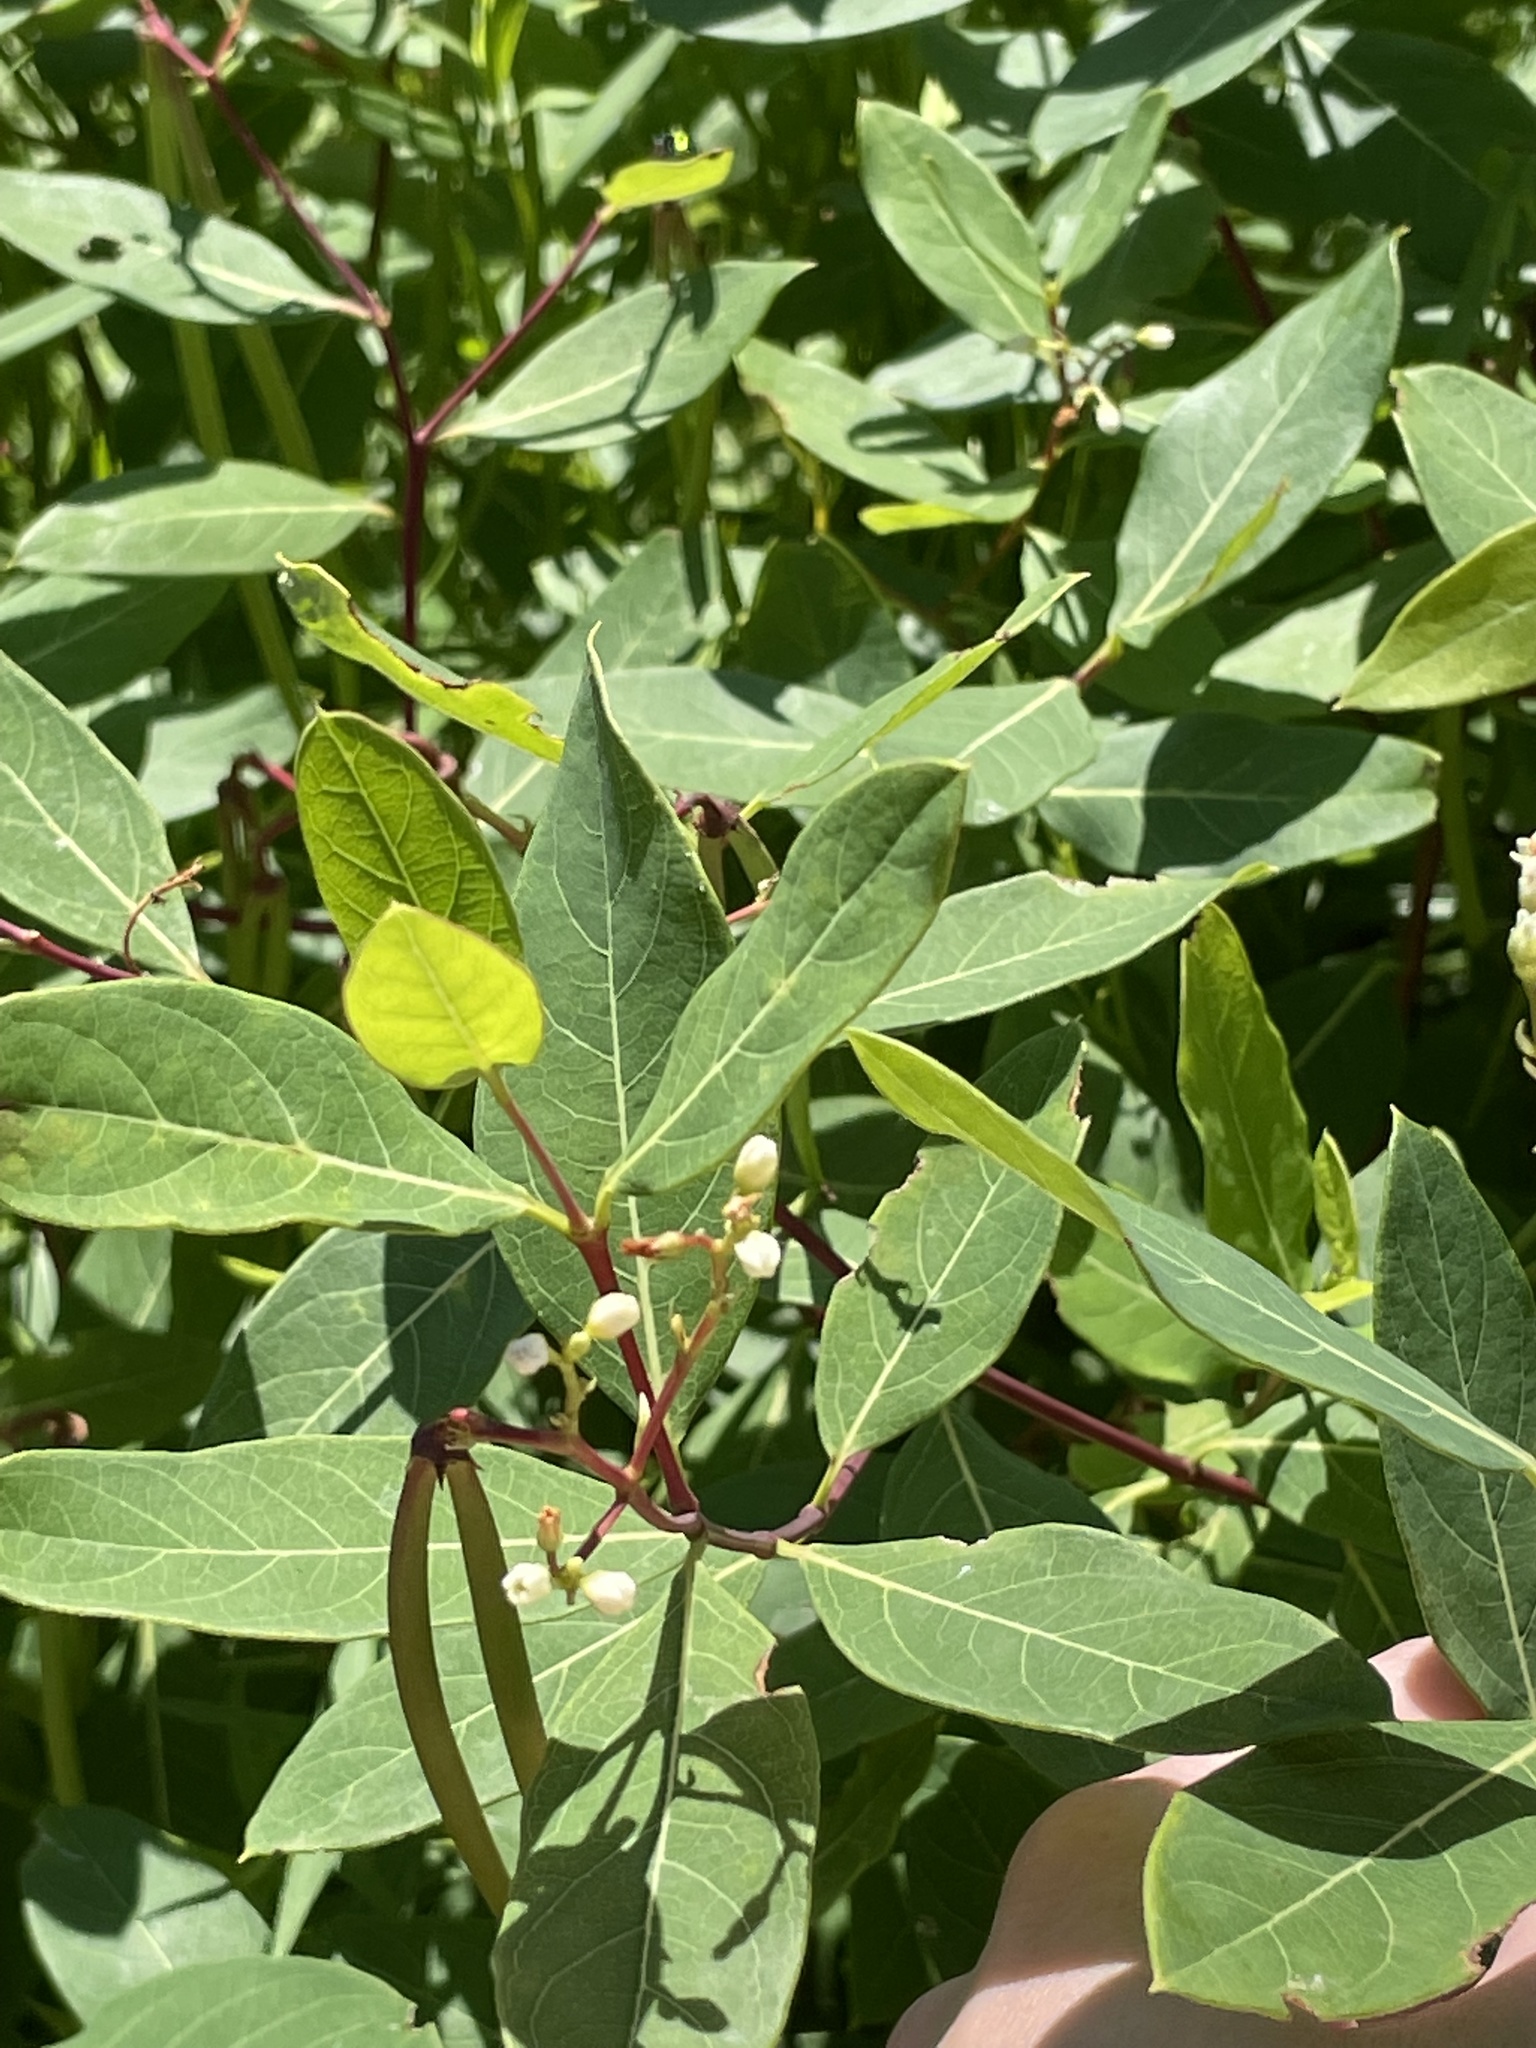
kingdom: Plantae
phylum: Tracheophyta
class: Magnoliopsida
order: Gentianales
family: Apocynaceae
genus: Apocynum
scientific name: Apocynum cannabinum
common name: Hemp dogbane
